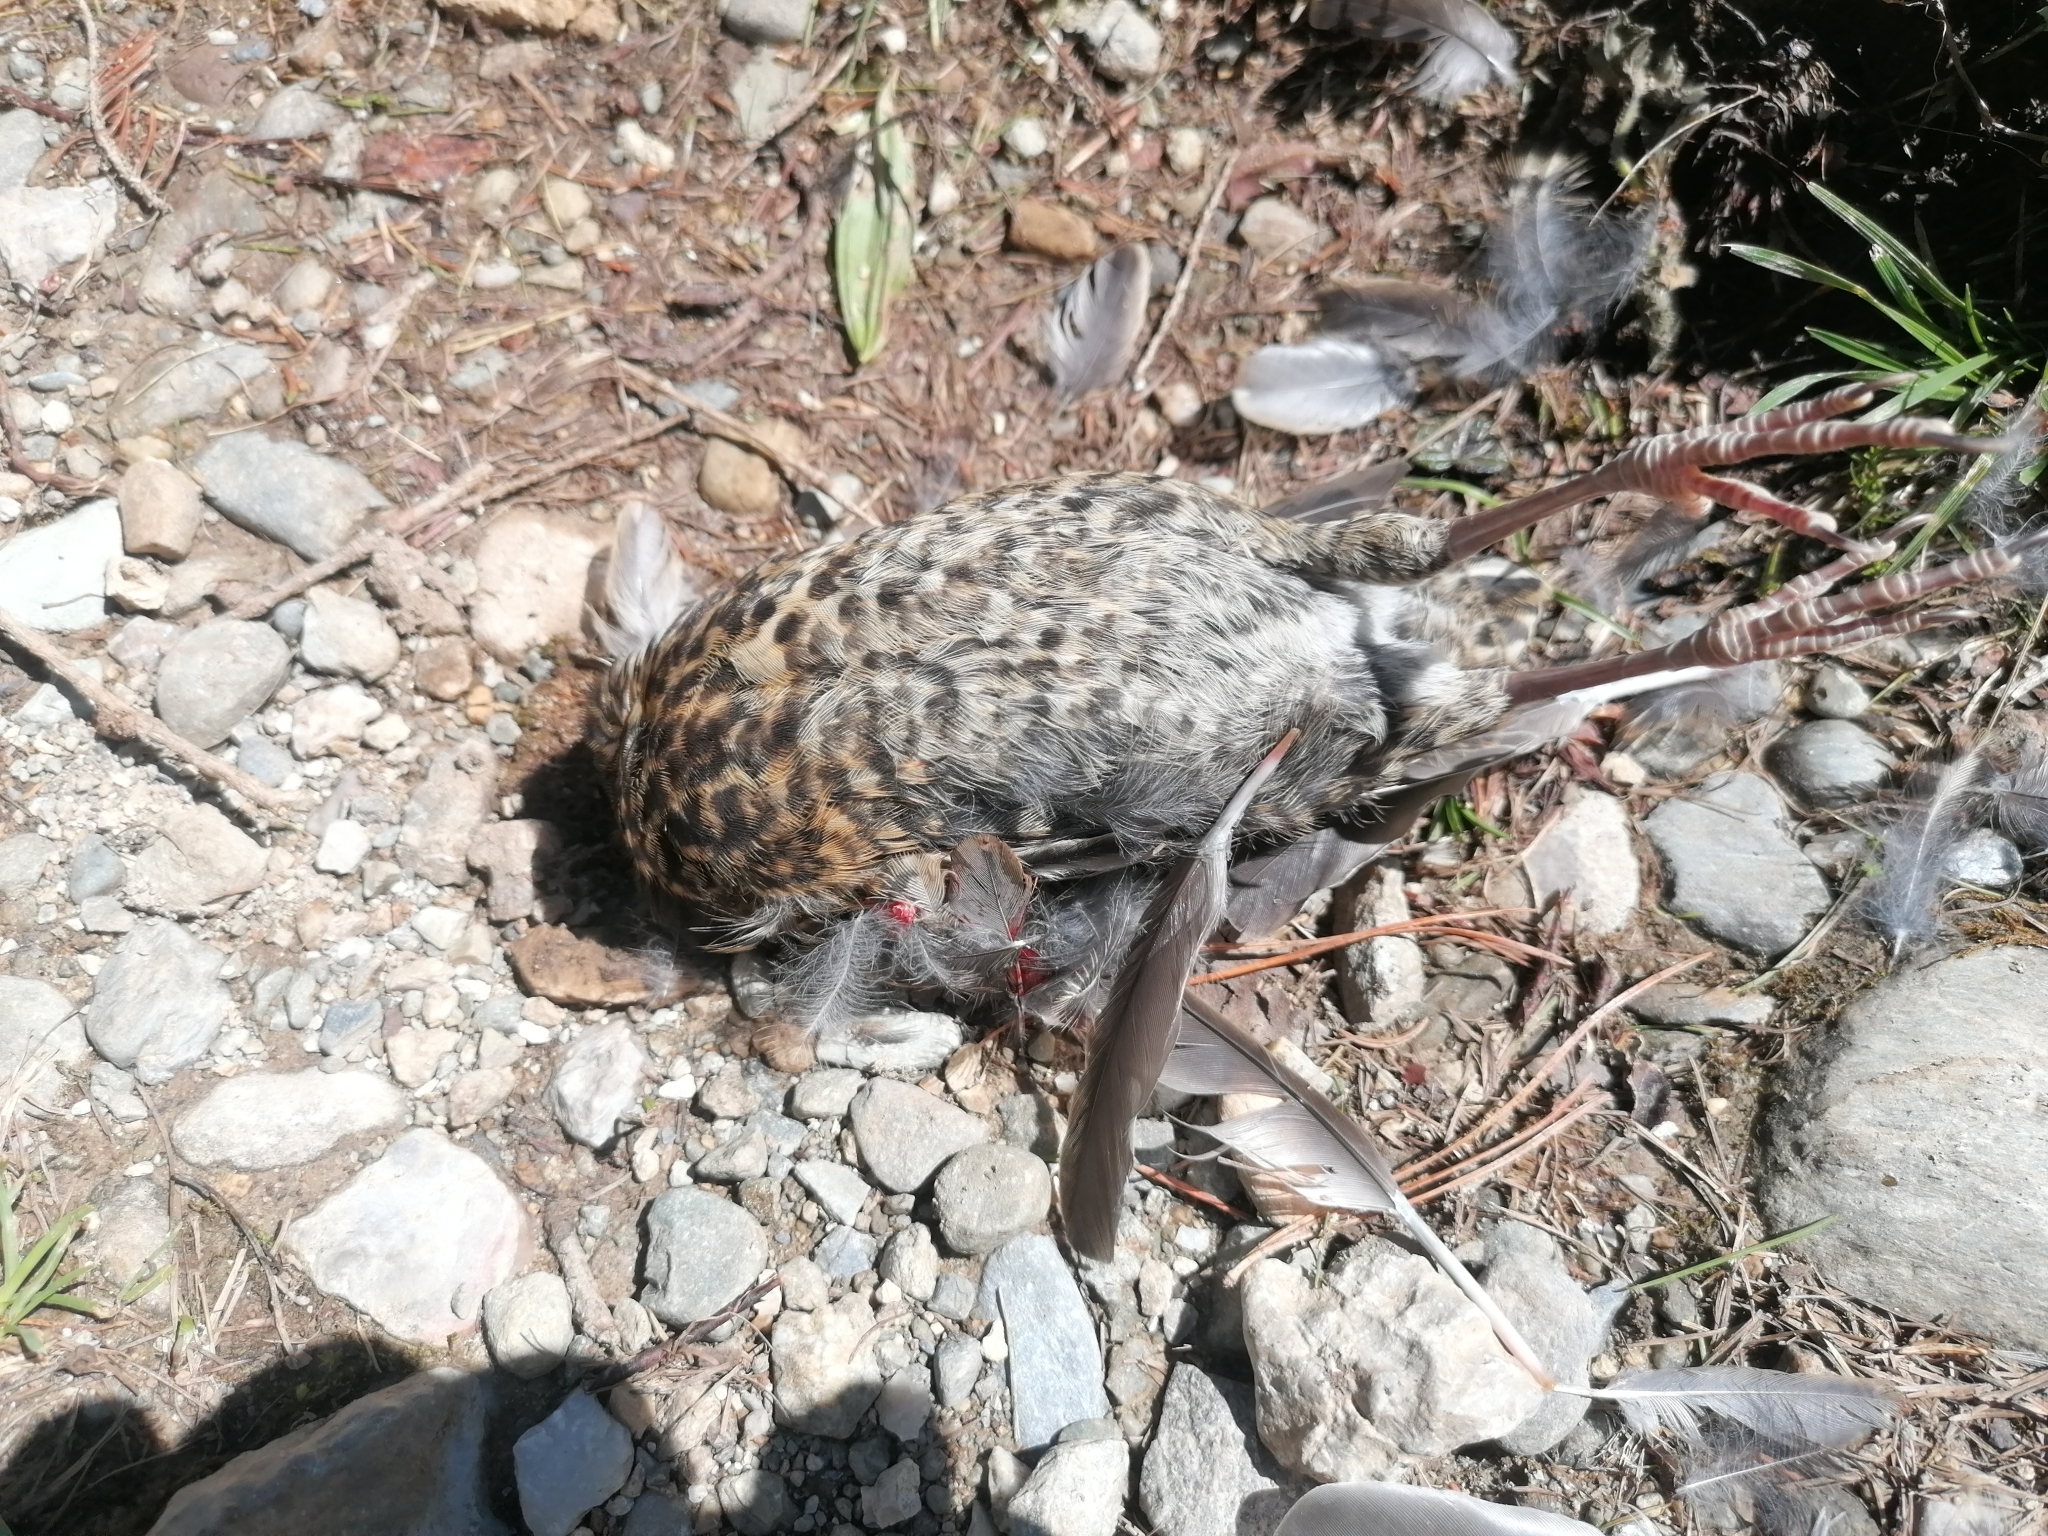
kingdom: Animalia
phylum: Chordata
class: Aves
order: Passeriformes
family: Turdidae
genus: Turdus
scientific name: Turdus merula
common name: Common blackbird
